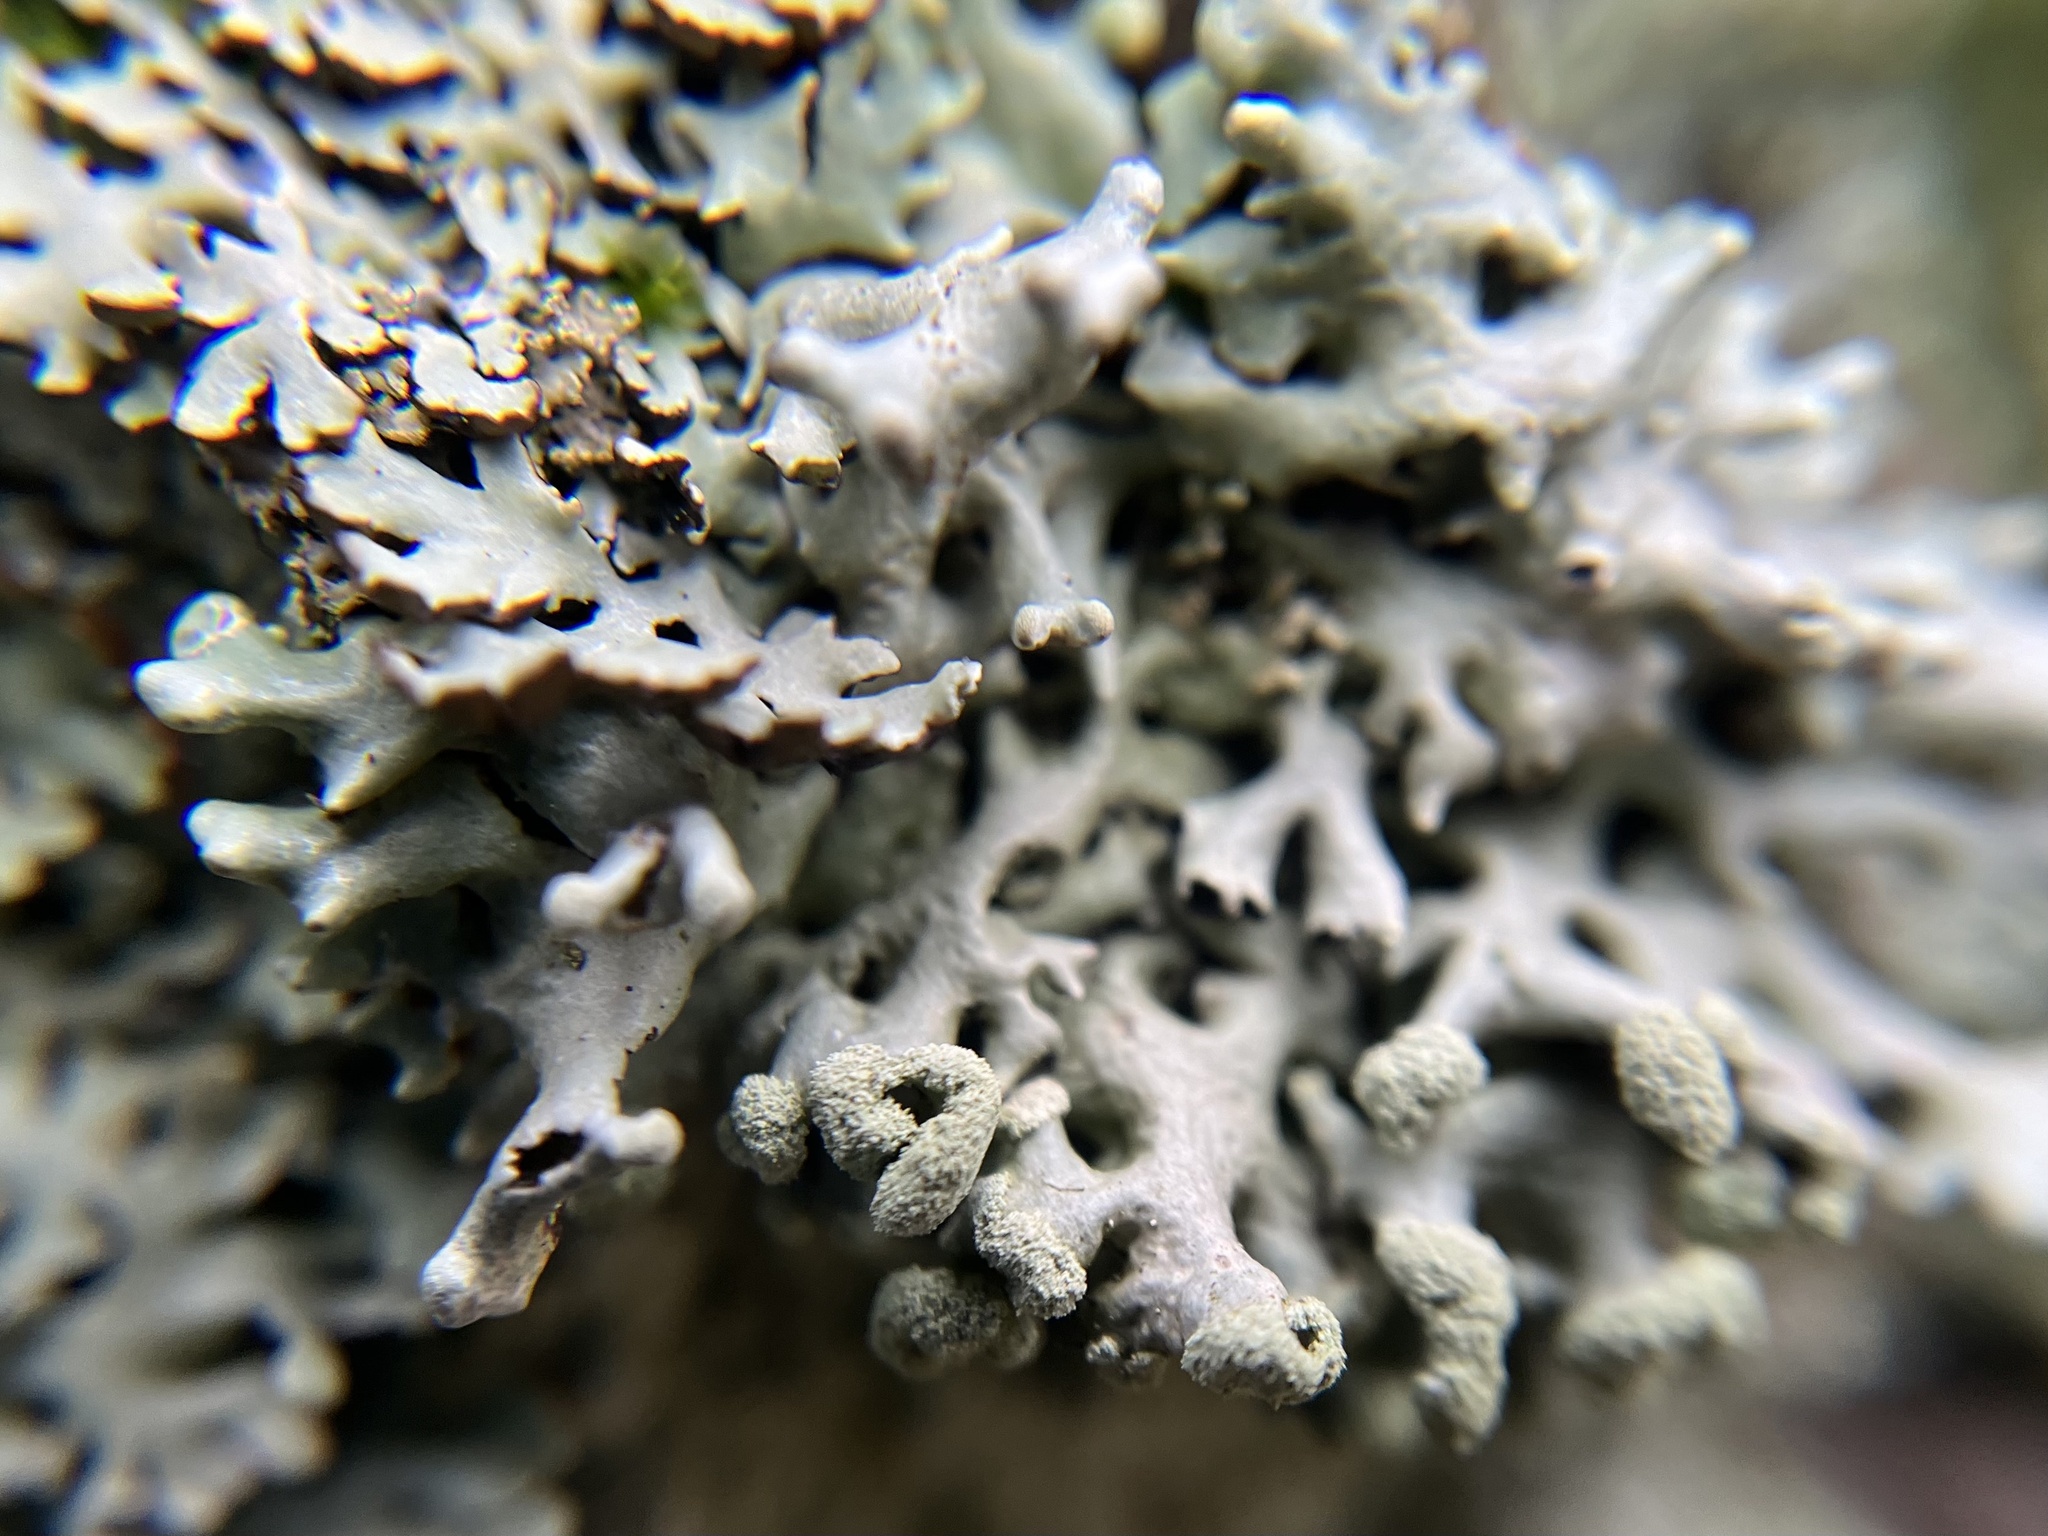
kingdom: Fungi
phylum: Ascomycota
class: Lecanoromycetes
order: Lecanorales
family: Parmeliaceae
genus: Hypogymnia
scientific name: Hypogymnia physodes
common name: Dark crottle
